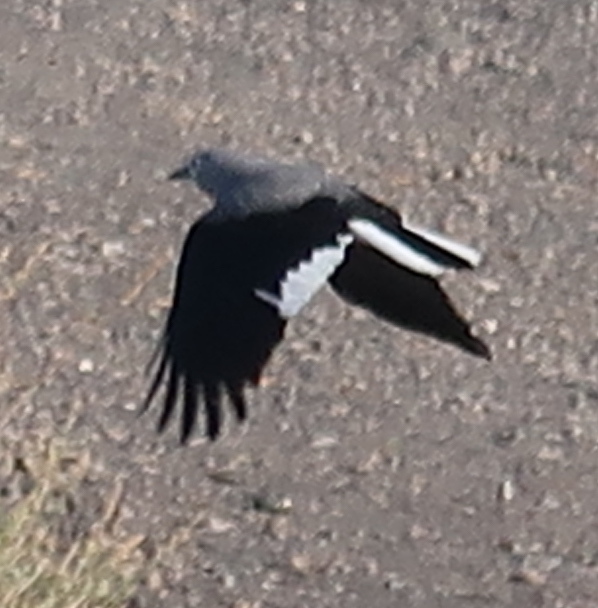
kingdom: Animalia
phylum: Chordata
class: Aves
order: Passeriformes
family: Corvidae
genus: Nucifraga
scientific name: Nucifraga columbiana
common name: Clark's nutcracker
